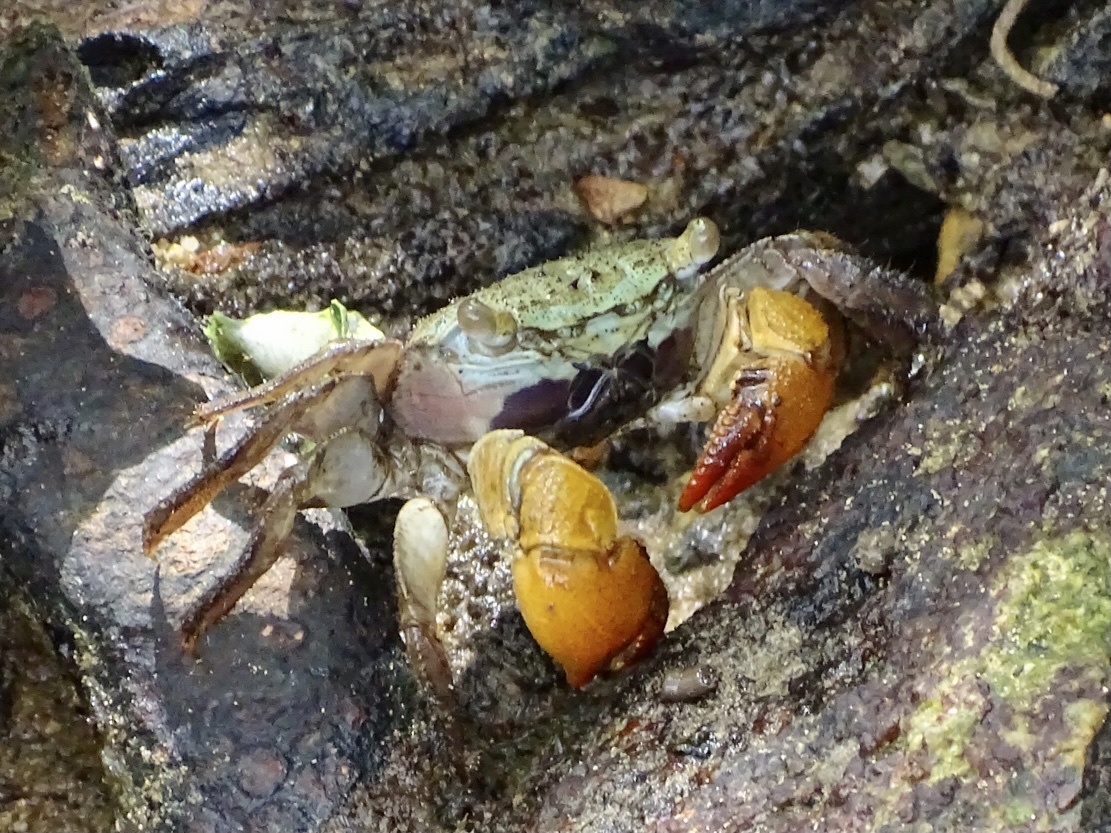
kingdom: Animalia
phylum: Arthropoda
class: Malacostraca
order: Decapoda
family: Sesarmidae
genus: Parasesarma
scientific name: Parasesarma bidens
